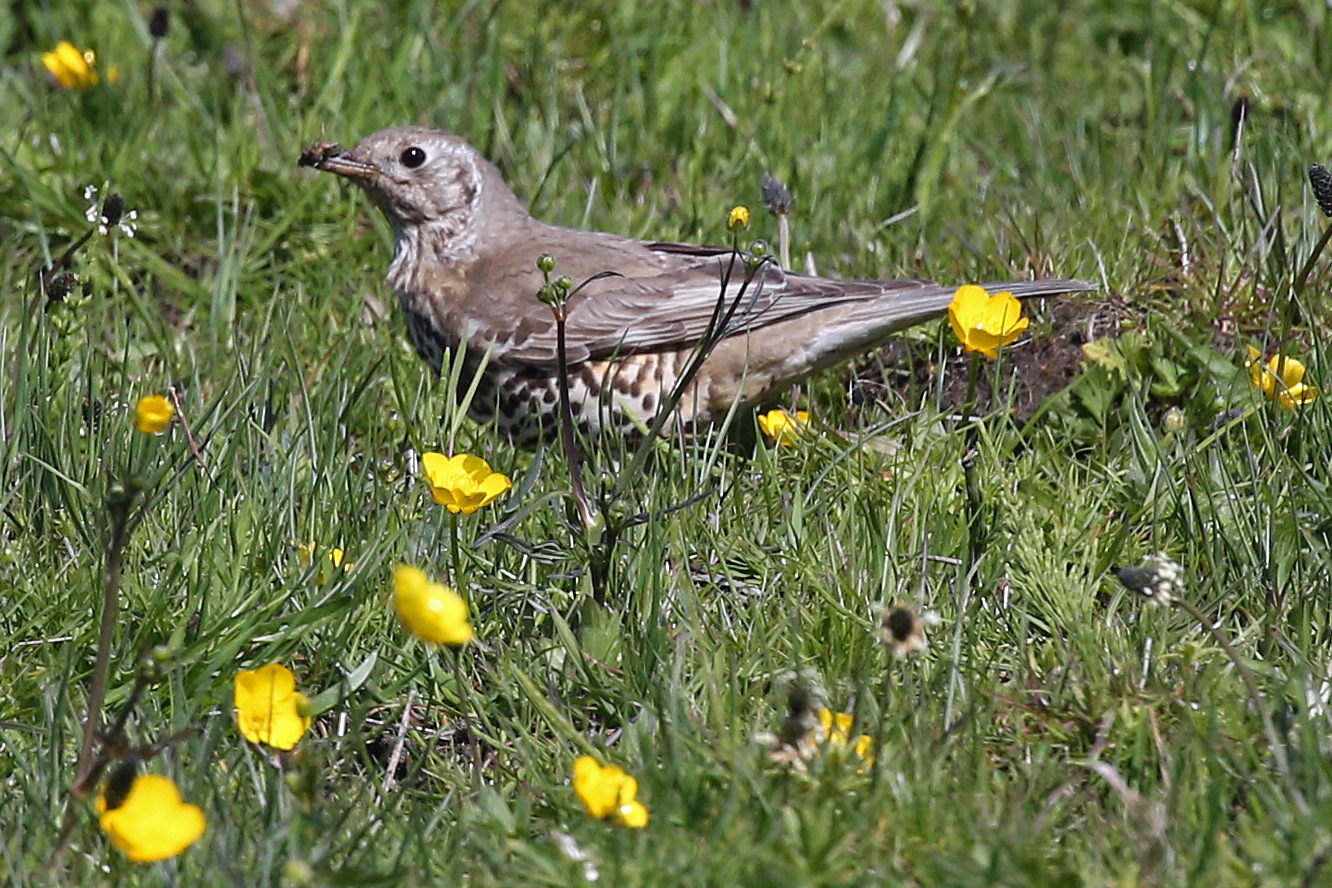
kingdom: Animalia
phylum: Chordata
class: Aves
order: Passeriformes
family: Turdidae
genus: Turdus
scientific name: Turdus viscivorus
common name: Mistle thrush
